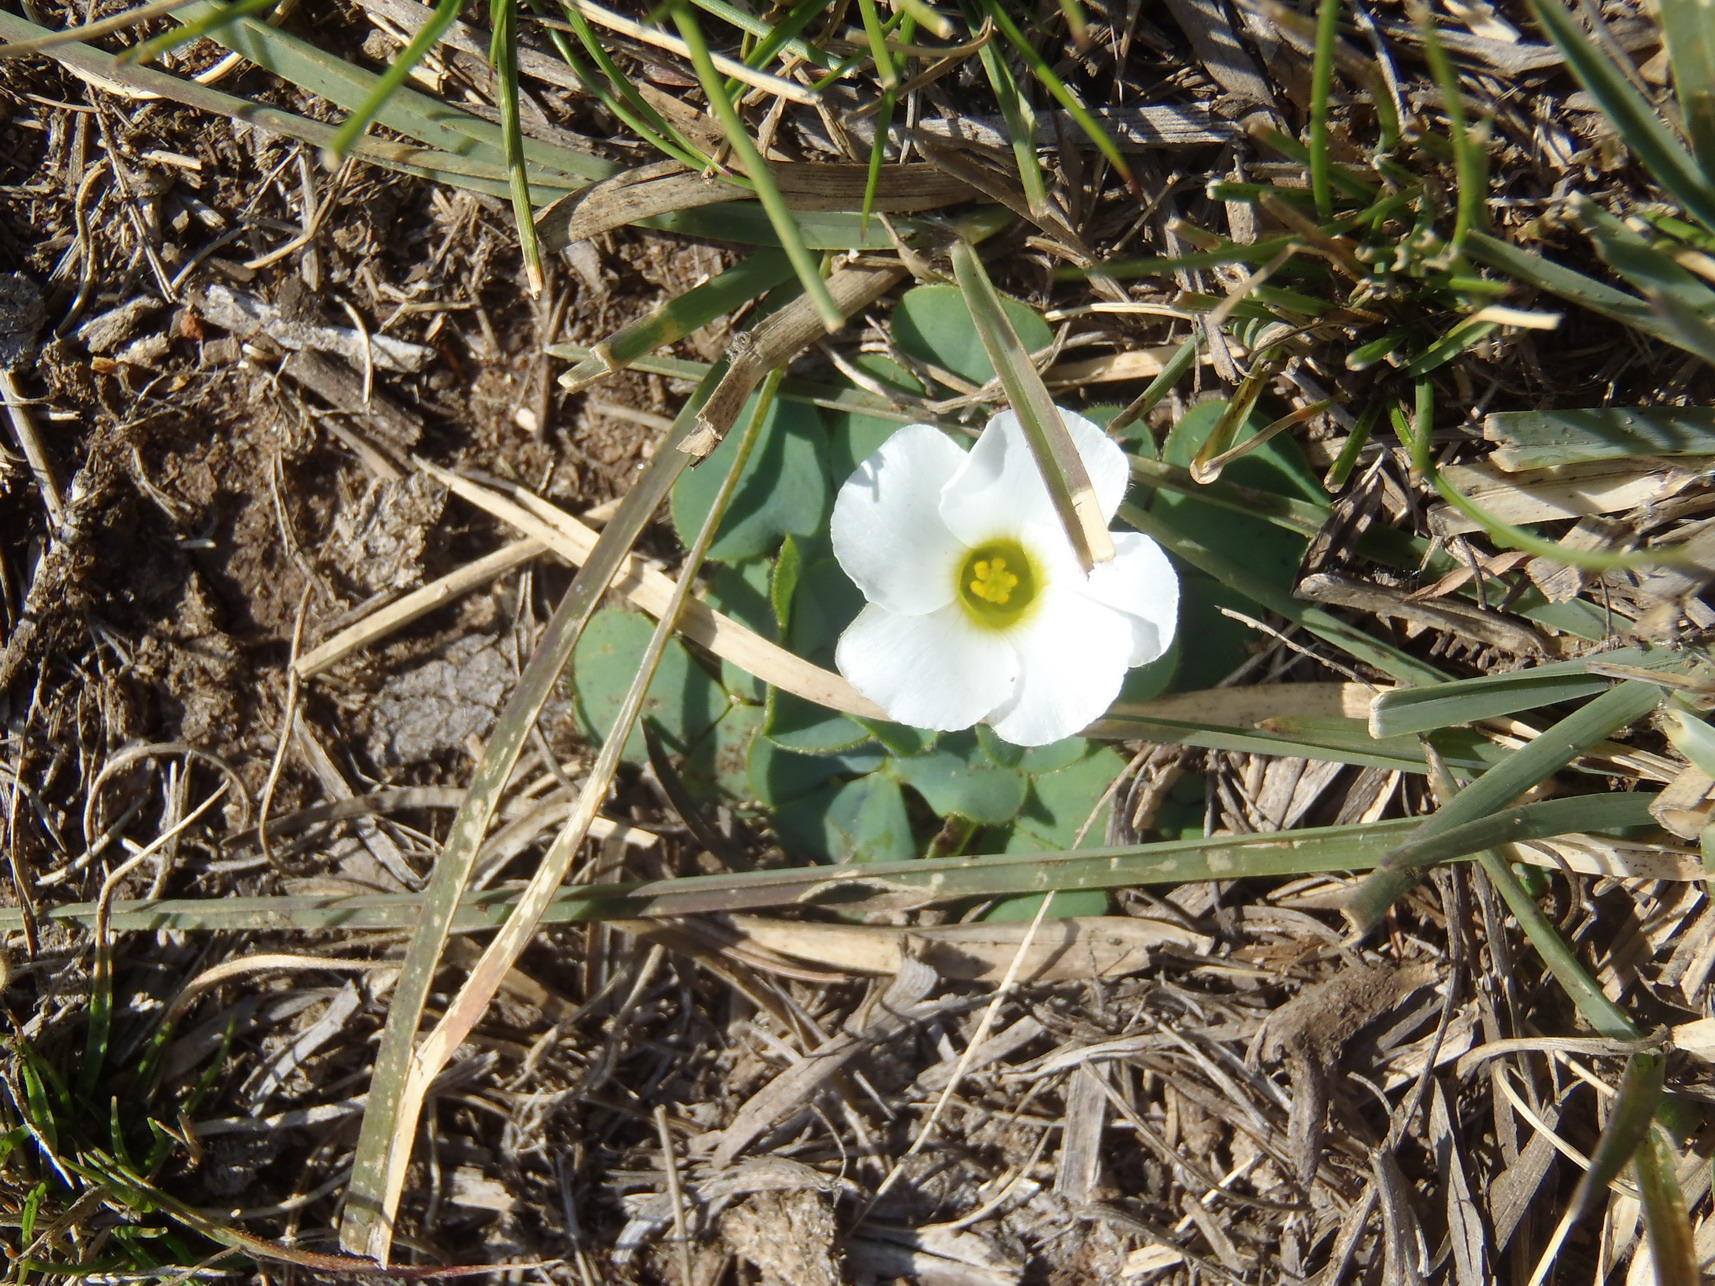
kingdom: Plantae
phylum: Tracheophyta
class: Magnoliopsida
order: Oxalidales
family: Oxalidaceae
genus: Oxalis
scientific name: Oxalis purpurea
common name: Purple woodsorrel
